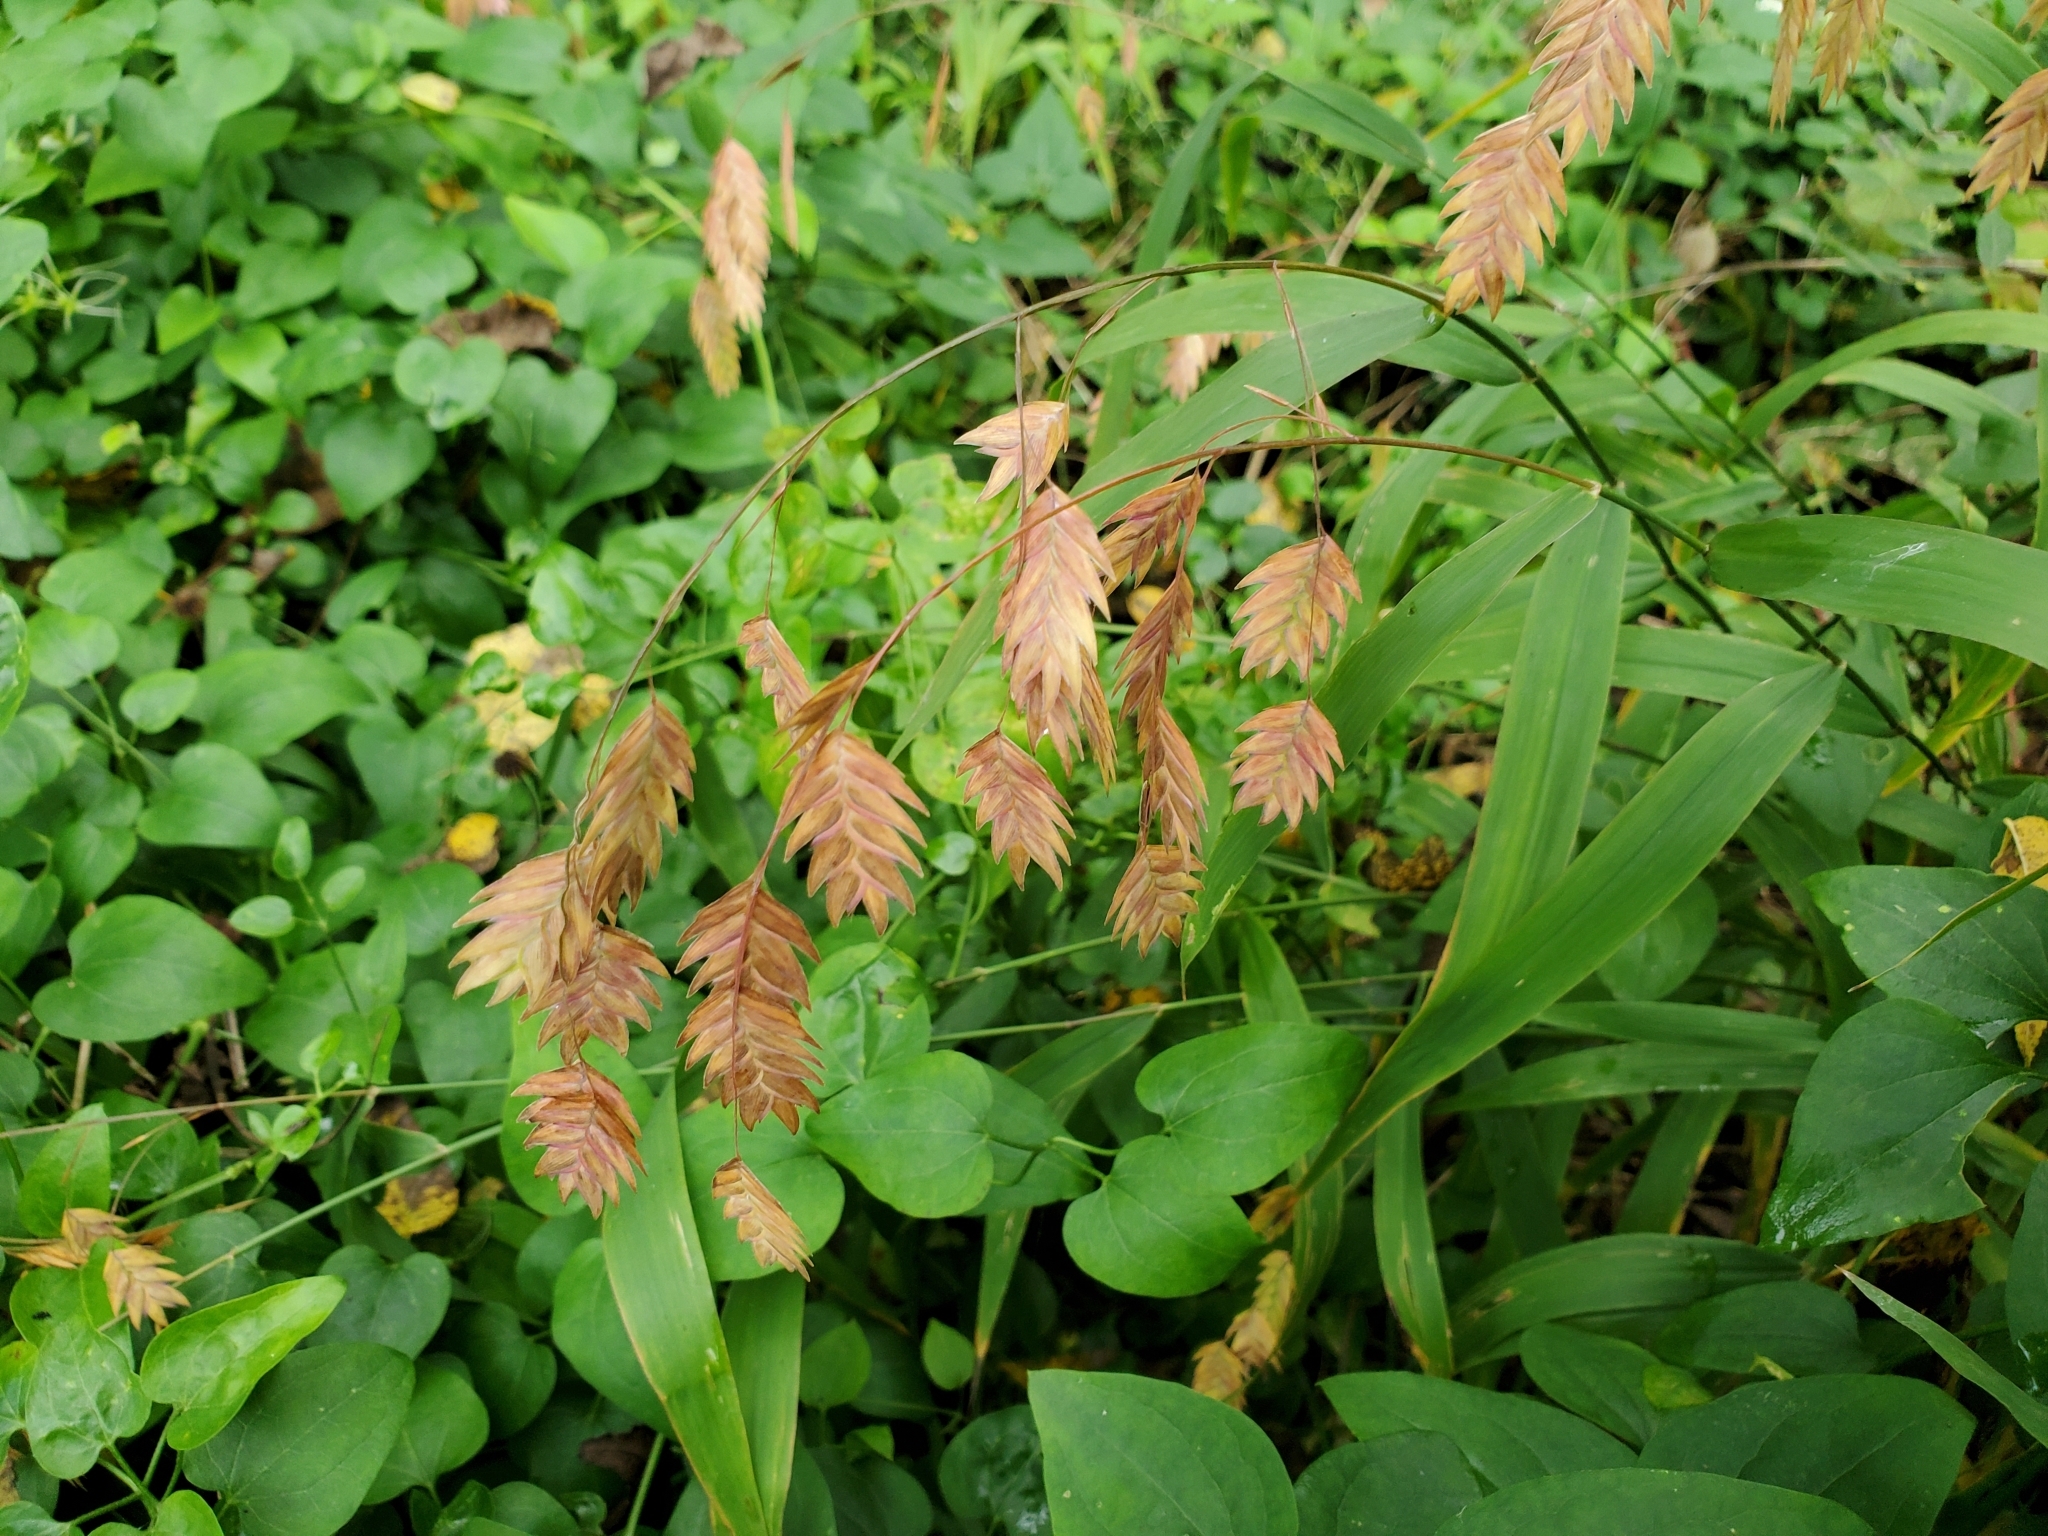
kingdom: Plantae
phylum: Tracheophyta
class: Liliopsida
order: Poales
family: Poaceae
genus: Chasmanthium
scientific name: Chasmanthium latifolium
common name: Broad-leaved chasmanthium
